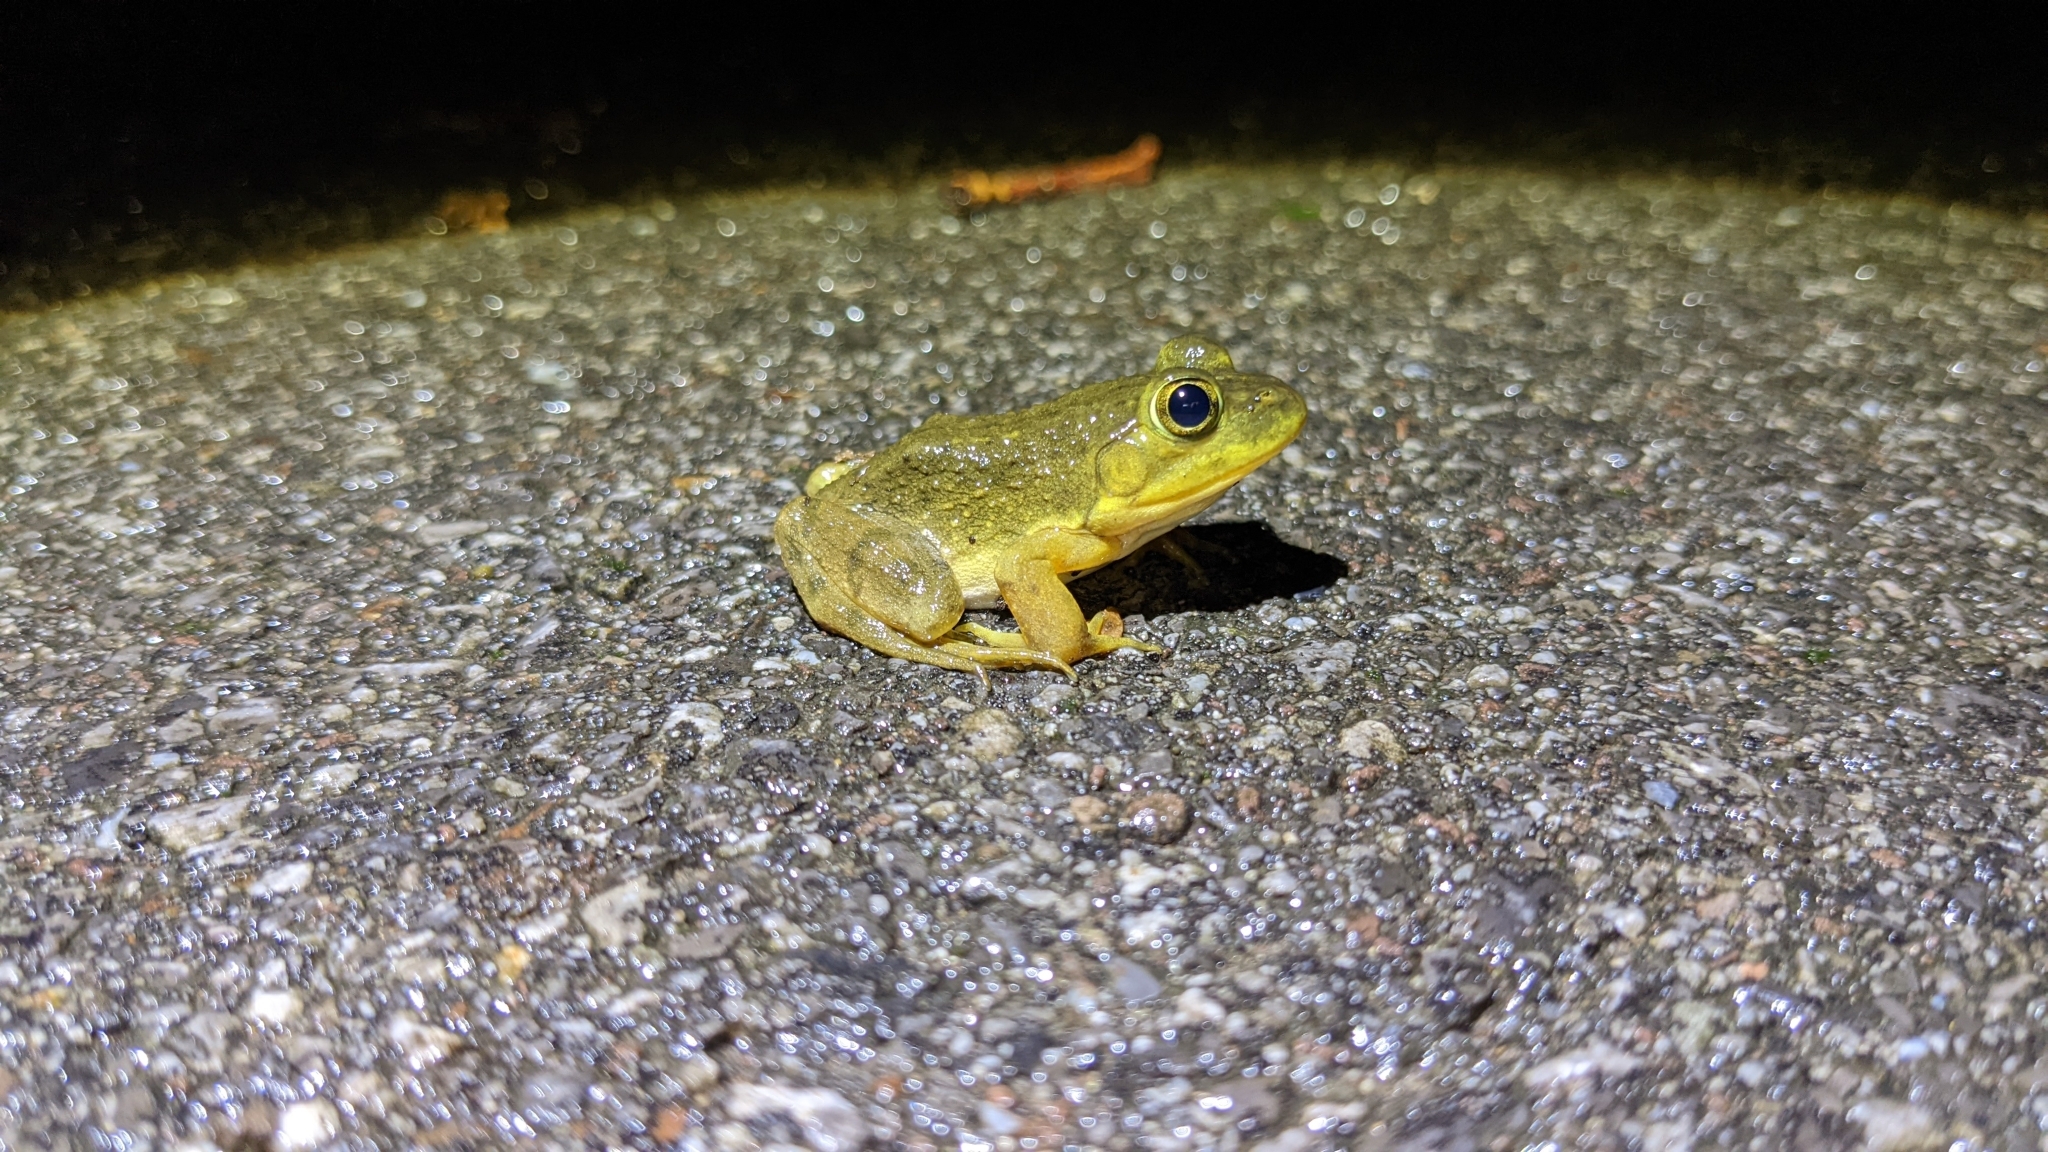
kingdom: Animalia
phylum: Chordata
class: Amphibia
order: Anura
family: Ranidae
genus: Lithobates
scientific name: Lithobates catesbeianus
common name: American bullfrog
